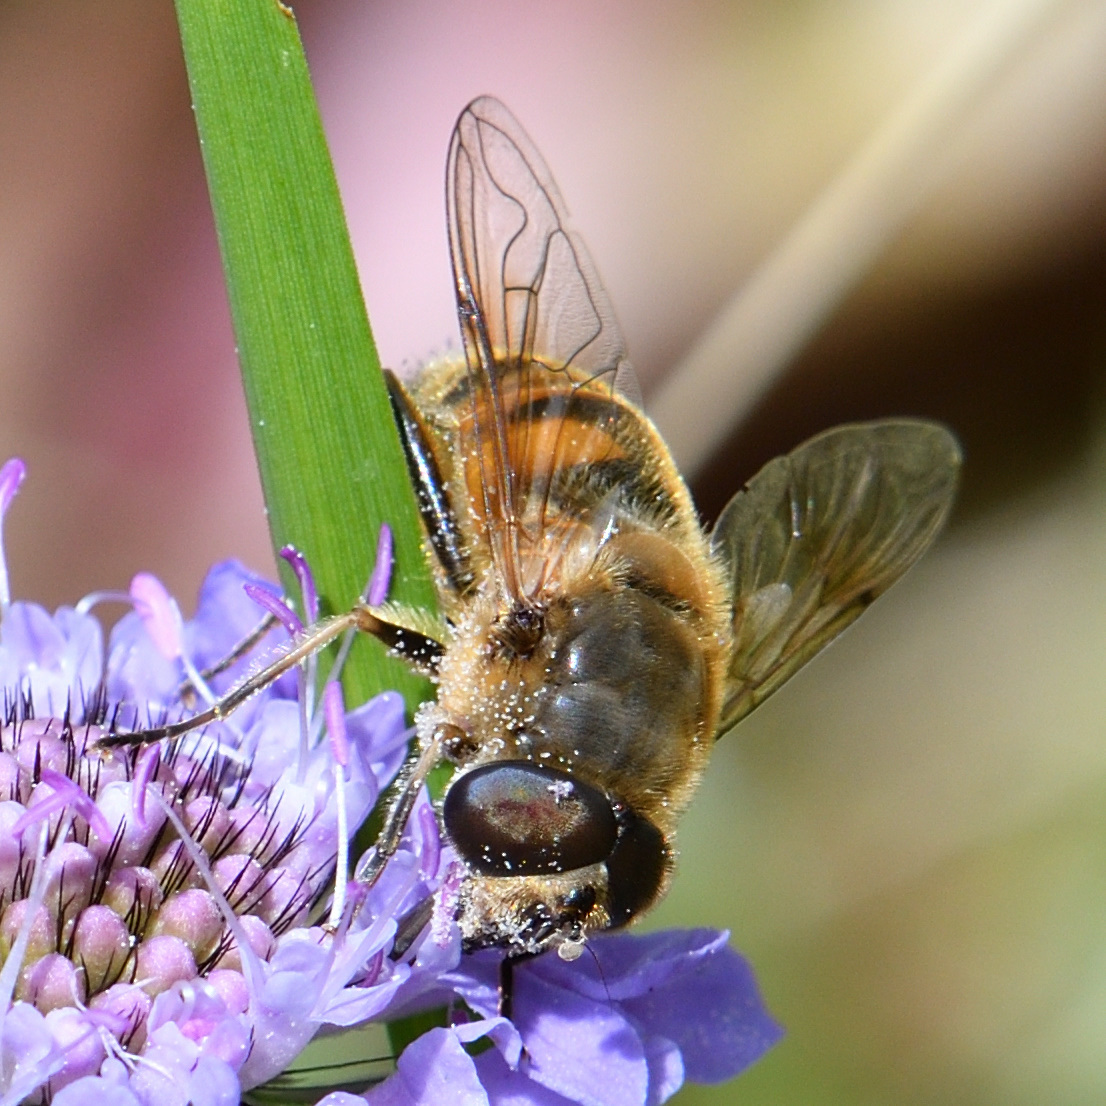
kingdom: Animalia
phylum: Arthropoda
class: Insecta
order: Diptera
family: Syrphidae
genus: Eristalis
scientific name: Eristalis tenax
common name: Drone fly
